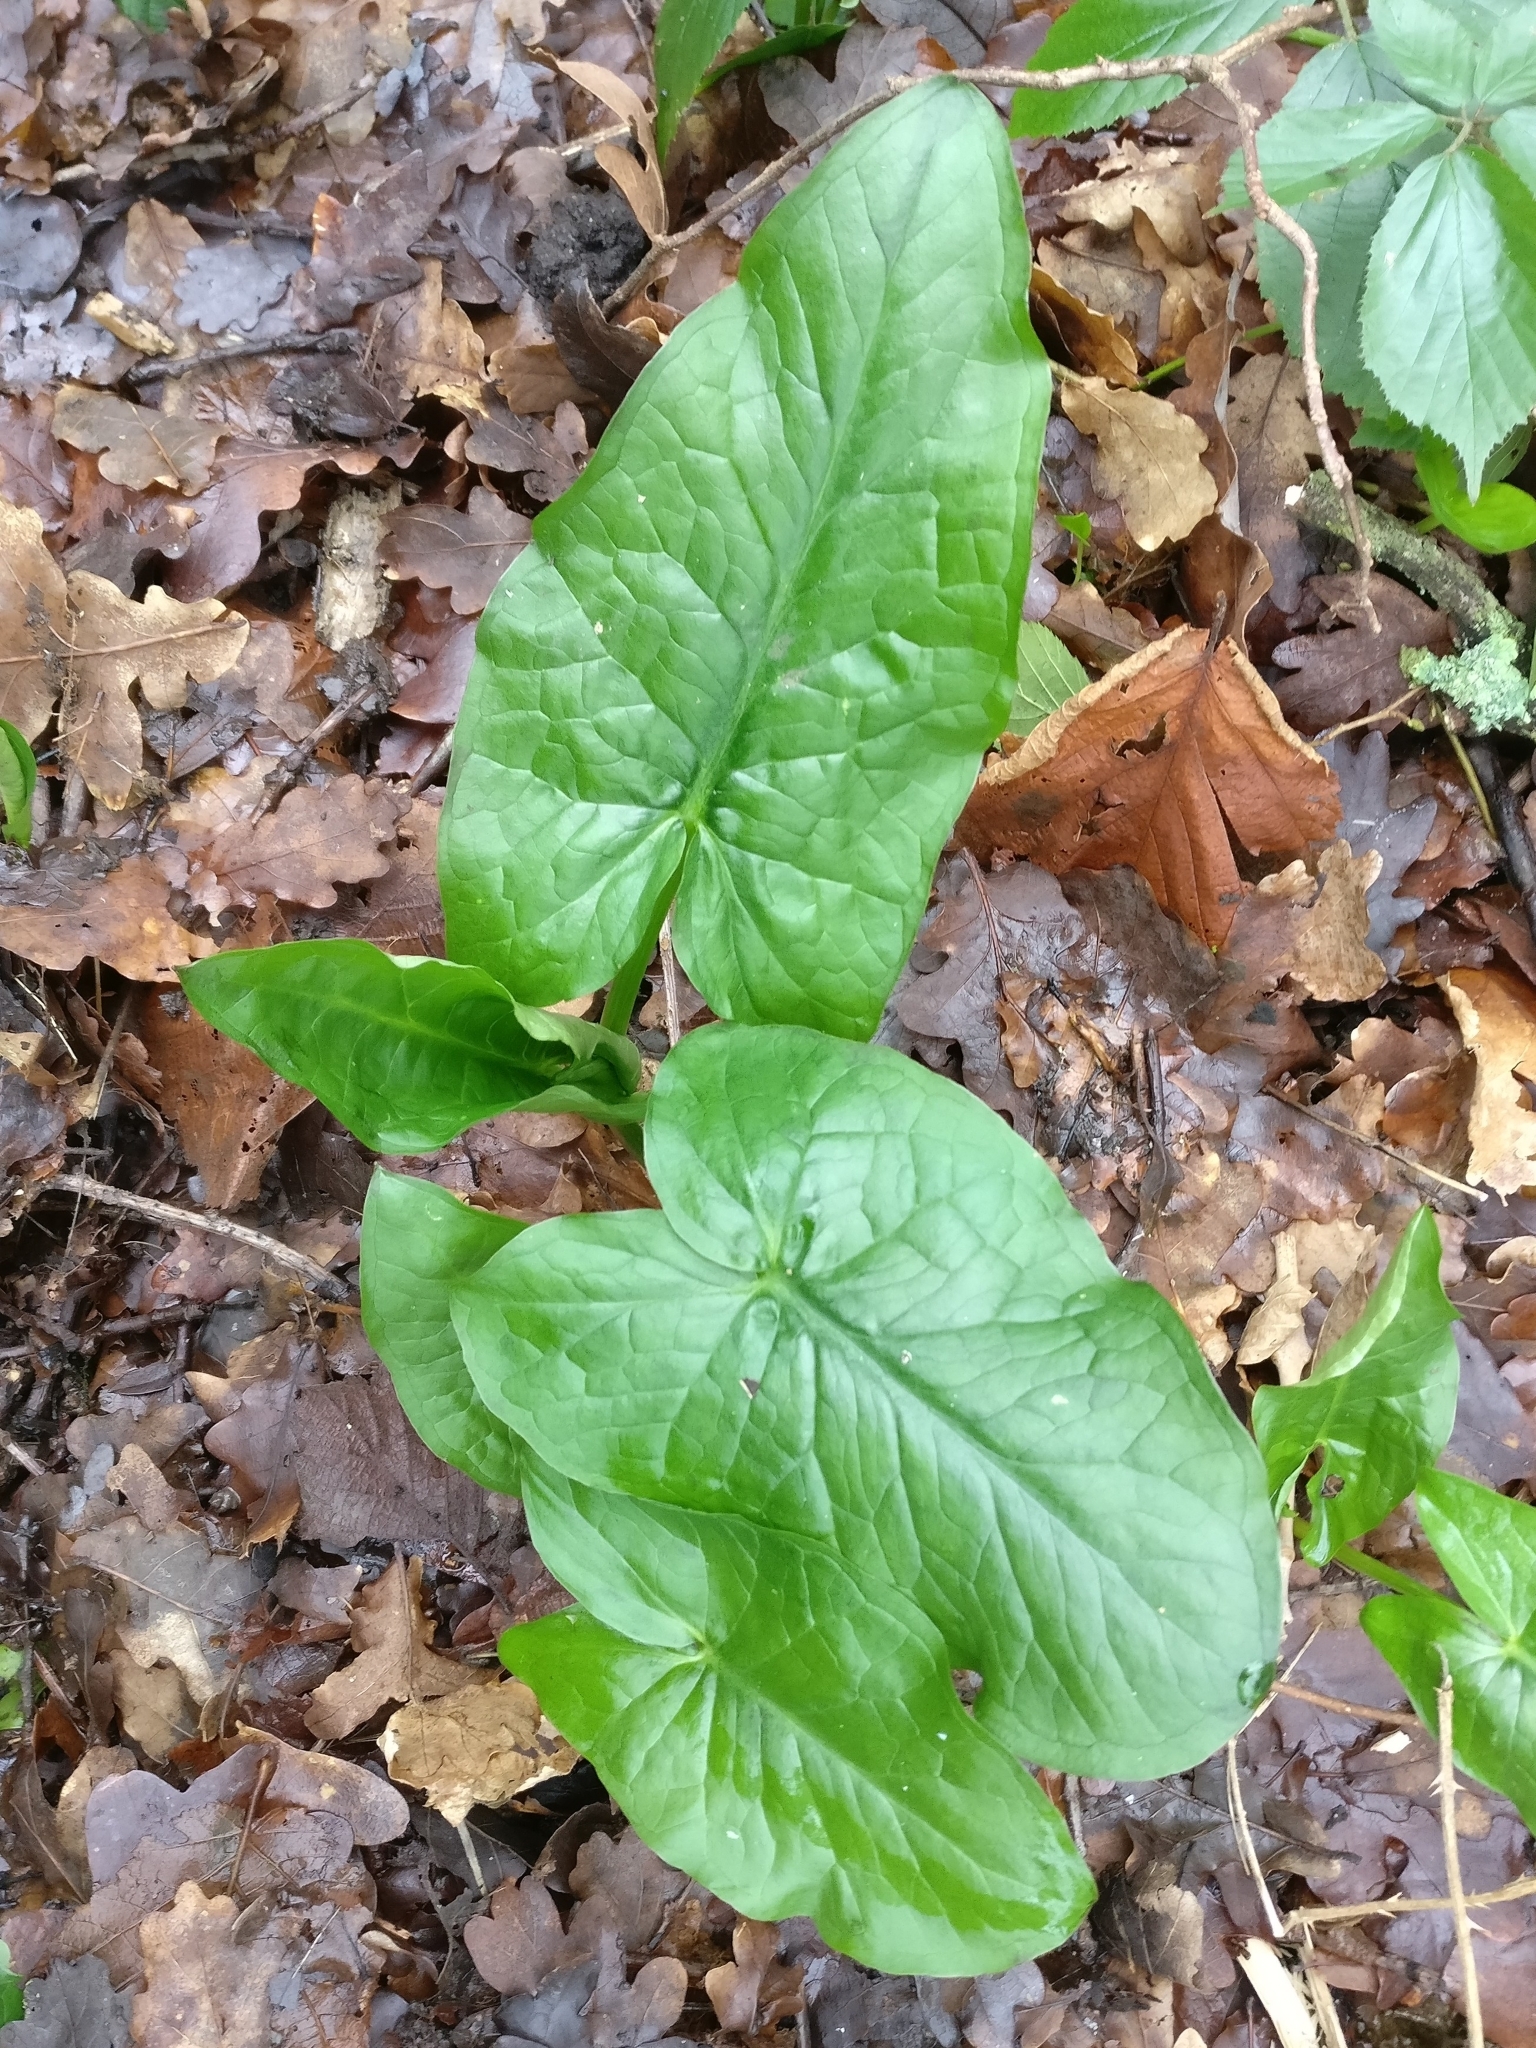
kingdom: Plantae
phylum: Tracheophyta
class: Liliopsida
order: Alismatales
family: Araceae
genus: Arum
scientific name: Arum maculatum
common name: Lords-and-ladies
